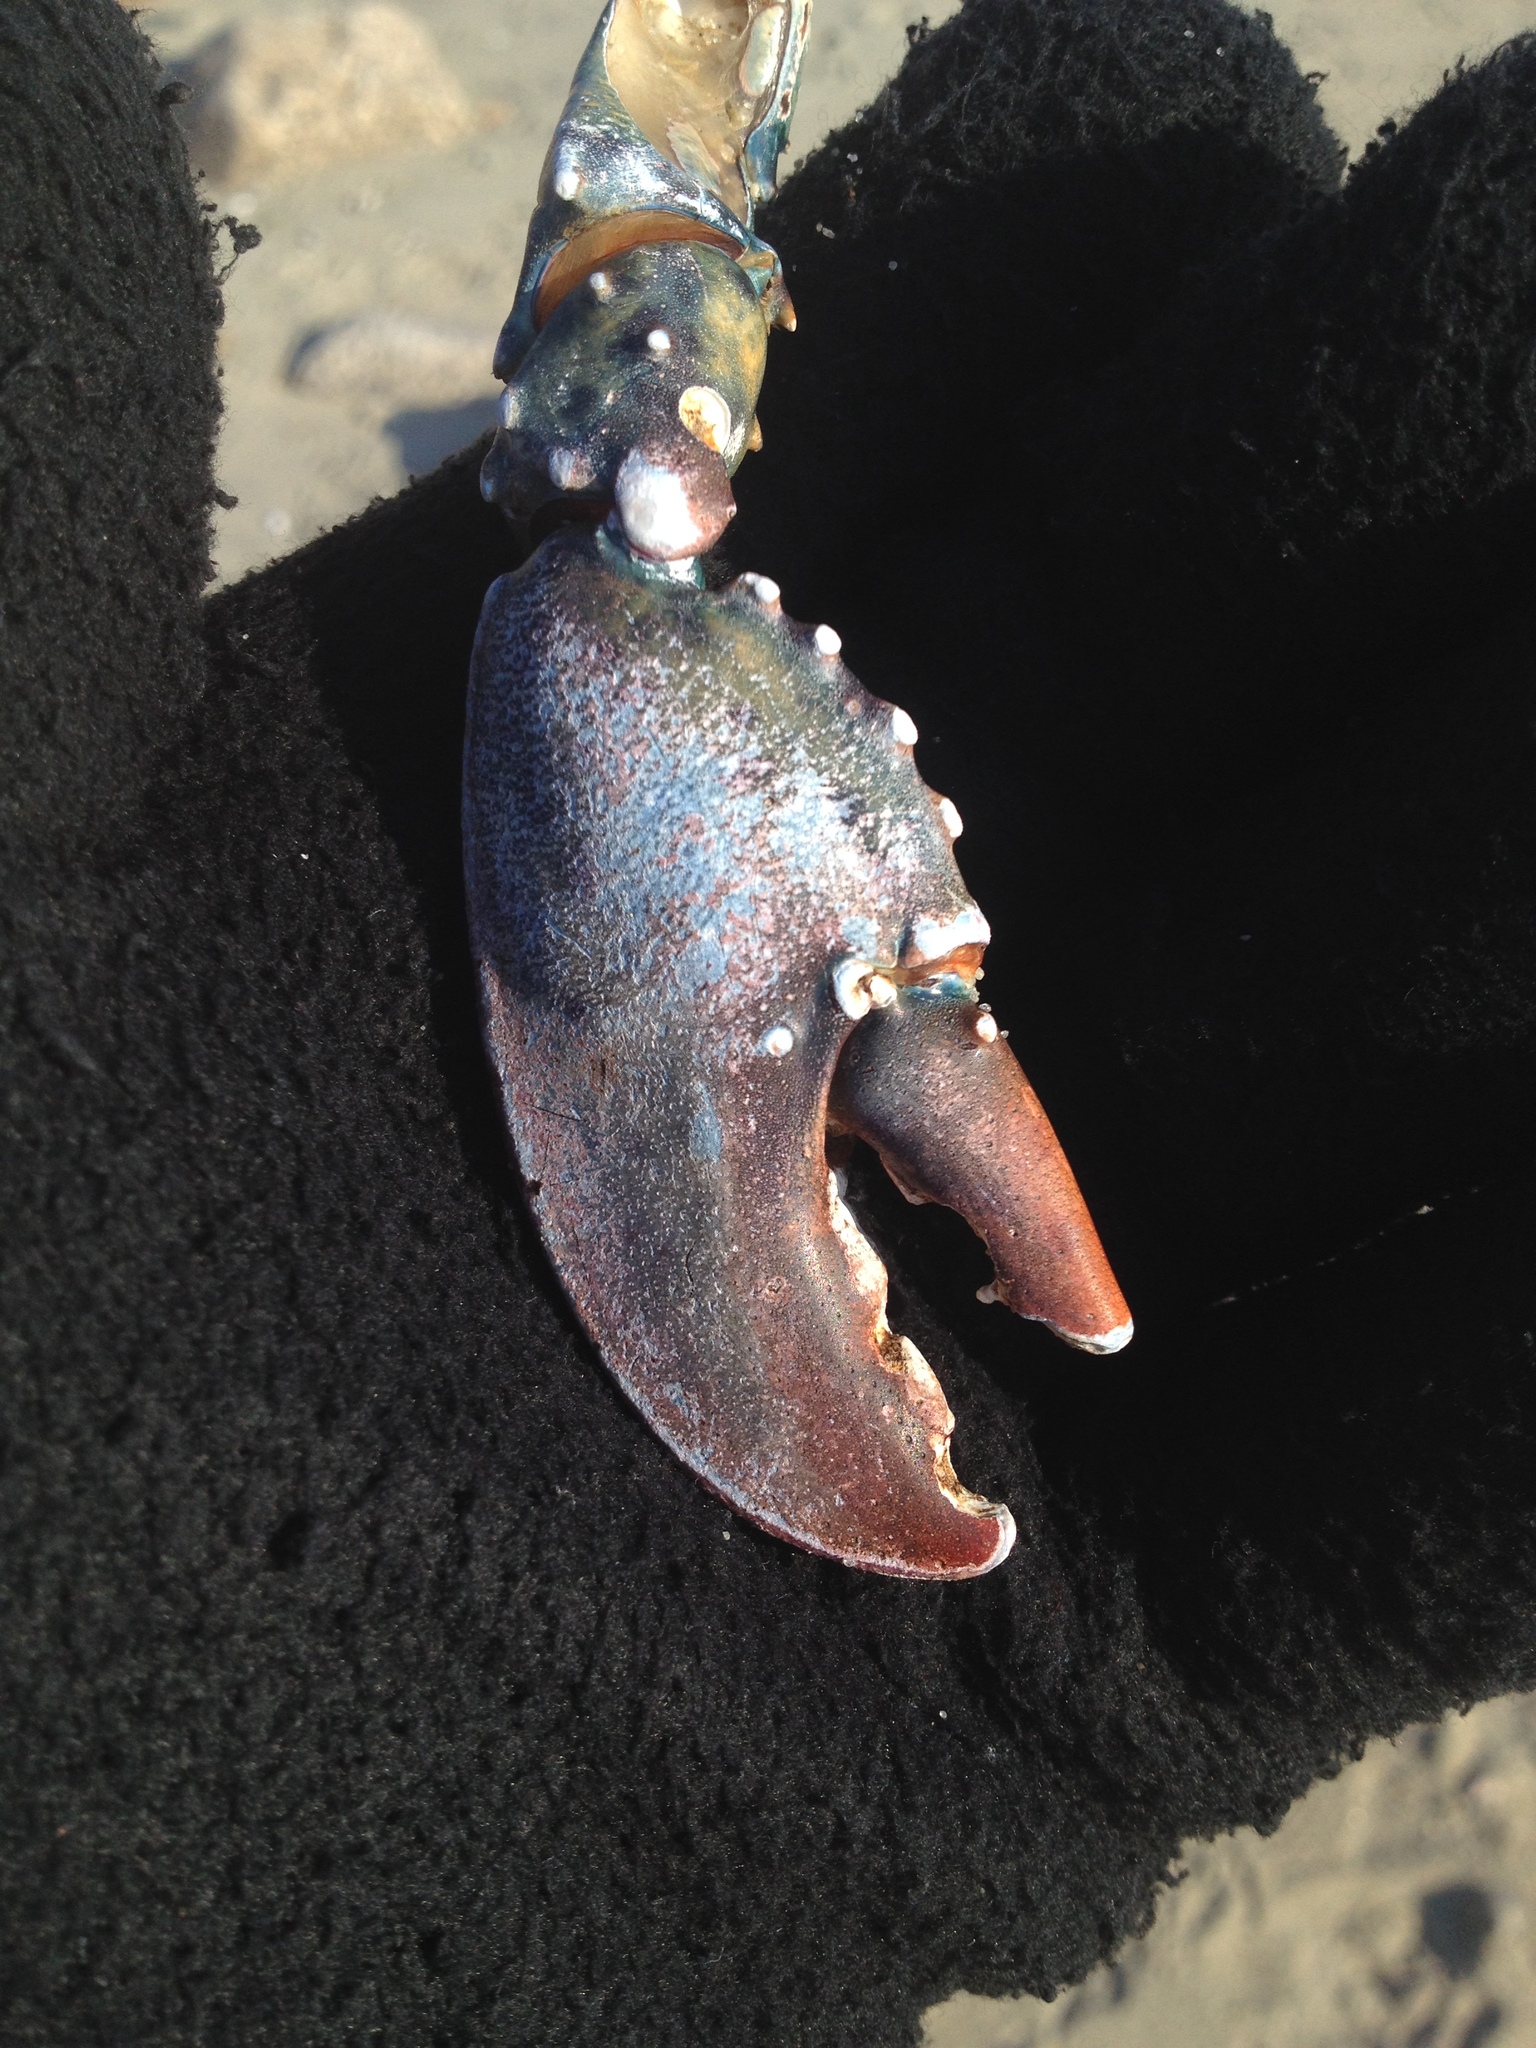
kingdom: Animalia
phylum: Arthropoda
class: Malacostraca
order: Decapoda
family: Nephropidae
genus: Homarus
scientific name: Homarus americanus
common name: American lobster
